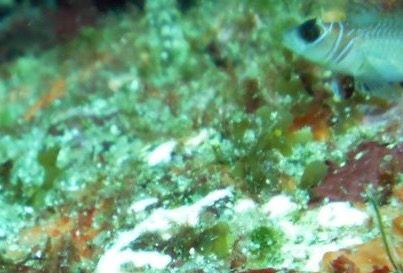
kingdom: Animalia
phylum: Chordata
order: Perciformes
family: Tripterygiidae
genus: Ruanoho
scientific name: Ruanoho whero
